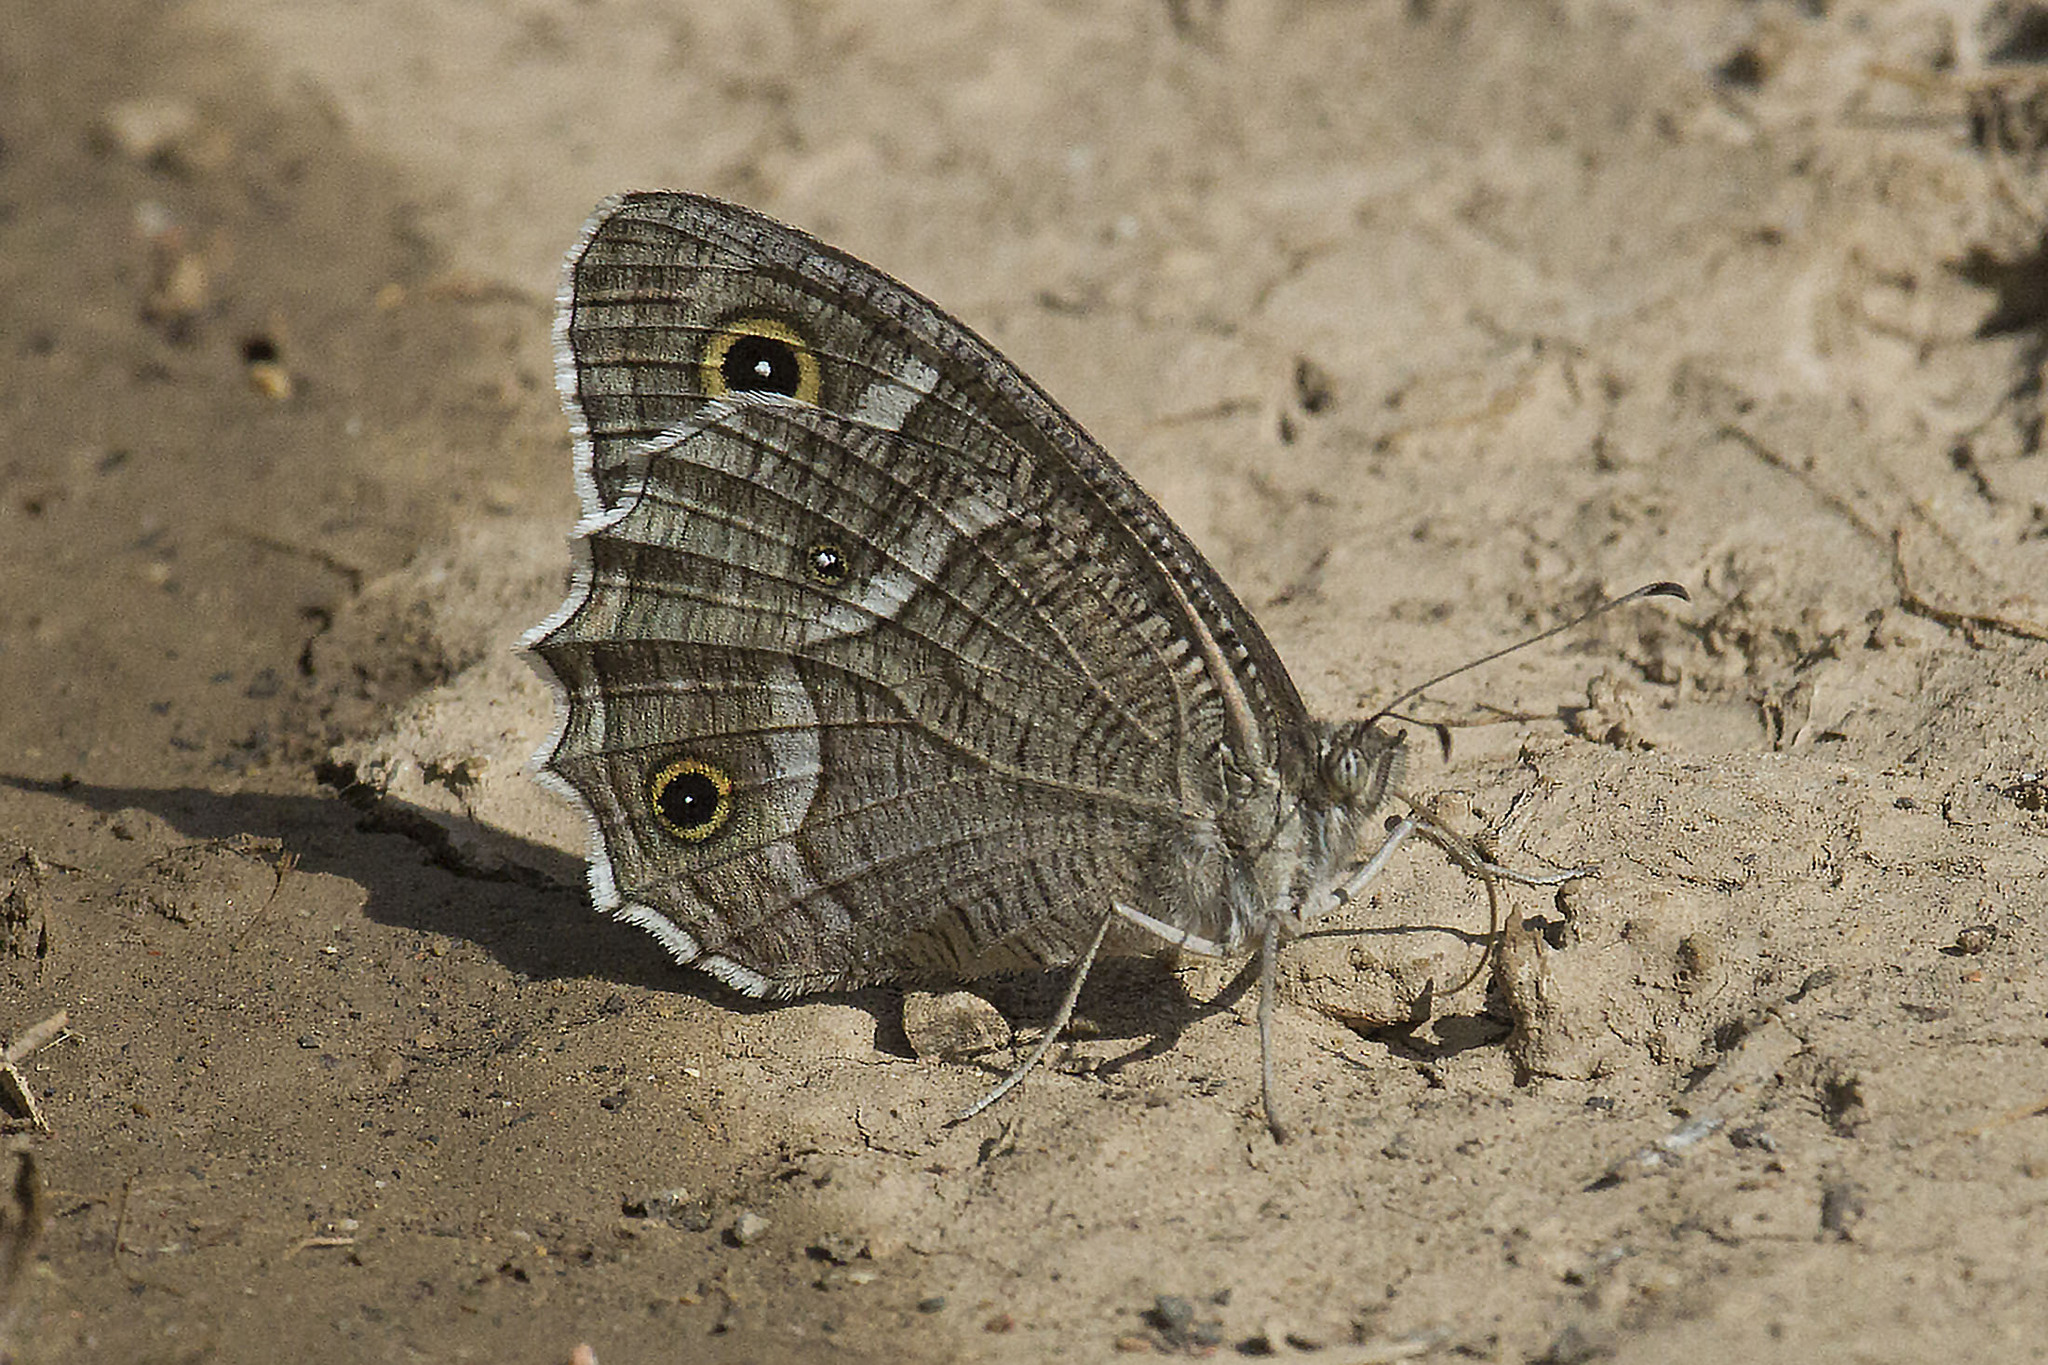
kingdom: Animalia
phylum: Arthropoda
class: Insecta
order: Lepidoptera
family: Nymphalidae
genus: Hipparchia
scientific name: Hipparchia parisatis
